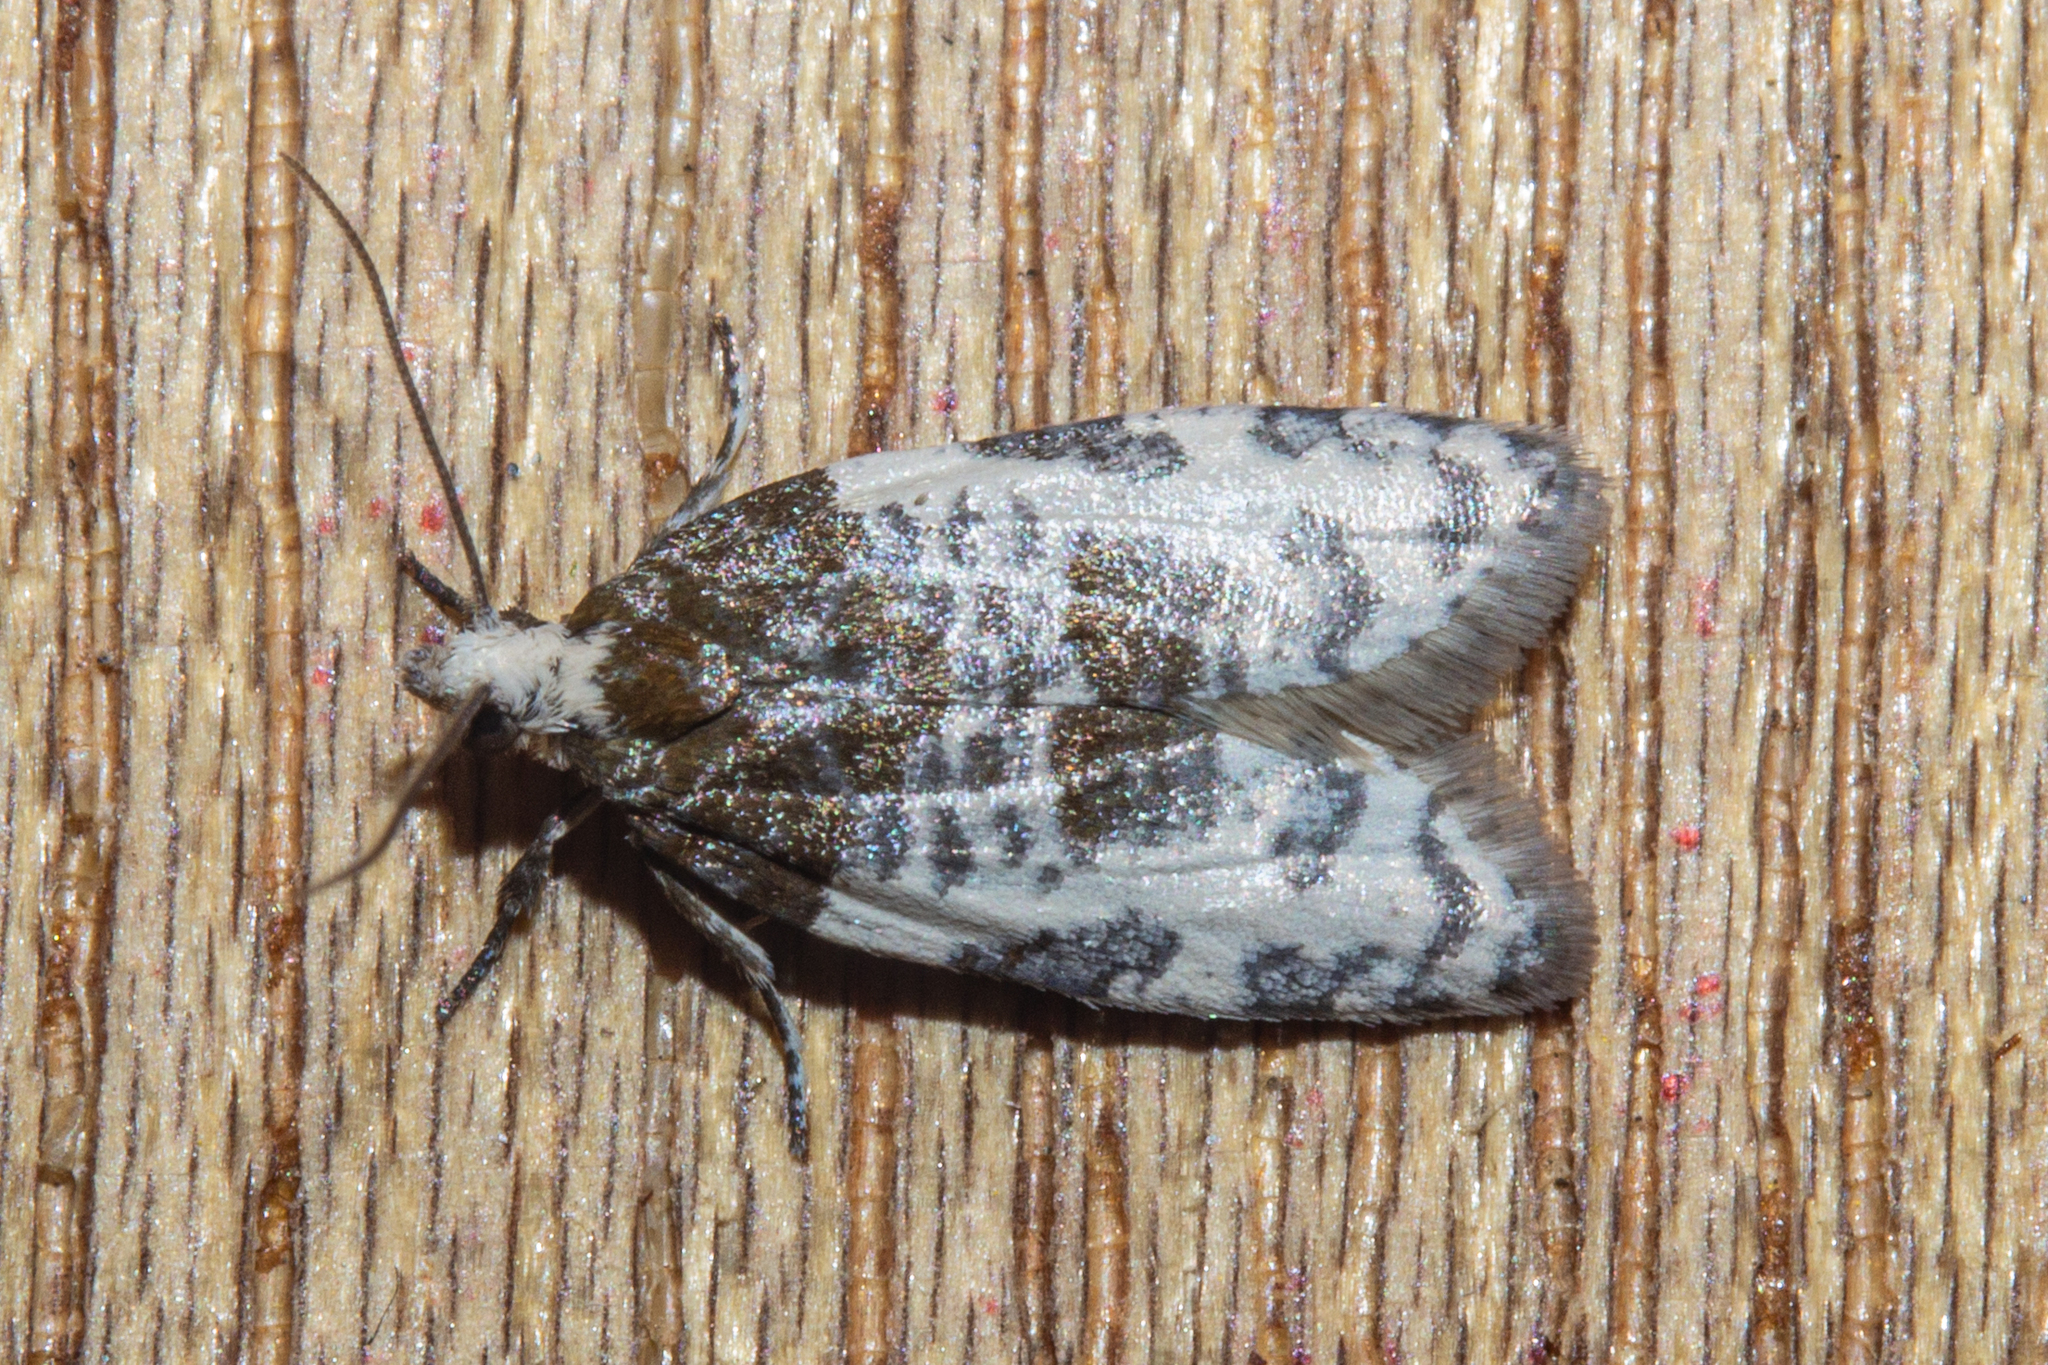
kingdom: Animalia
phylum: Arthropoda
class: Insecta
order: Lepidoptera
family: Tortricidae
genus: Prothelymna
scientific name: Prothelymna niphostrota
